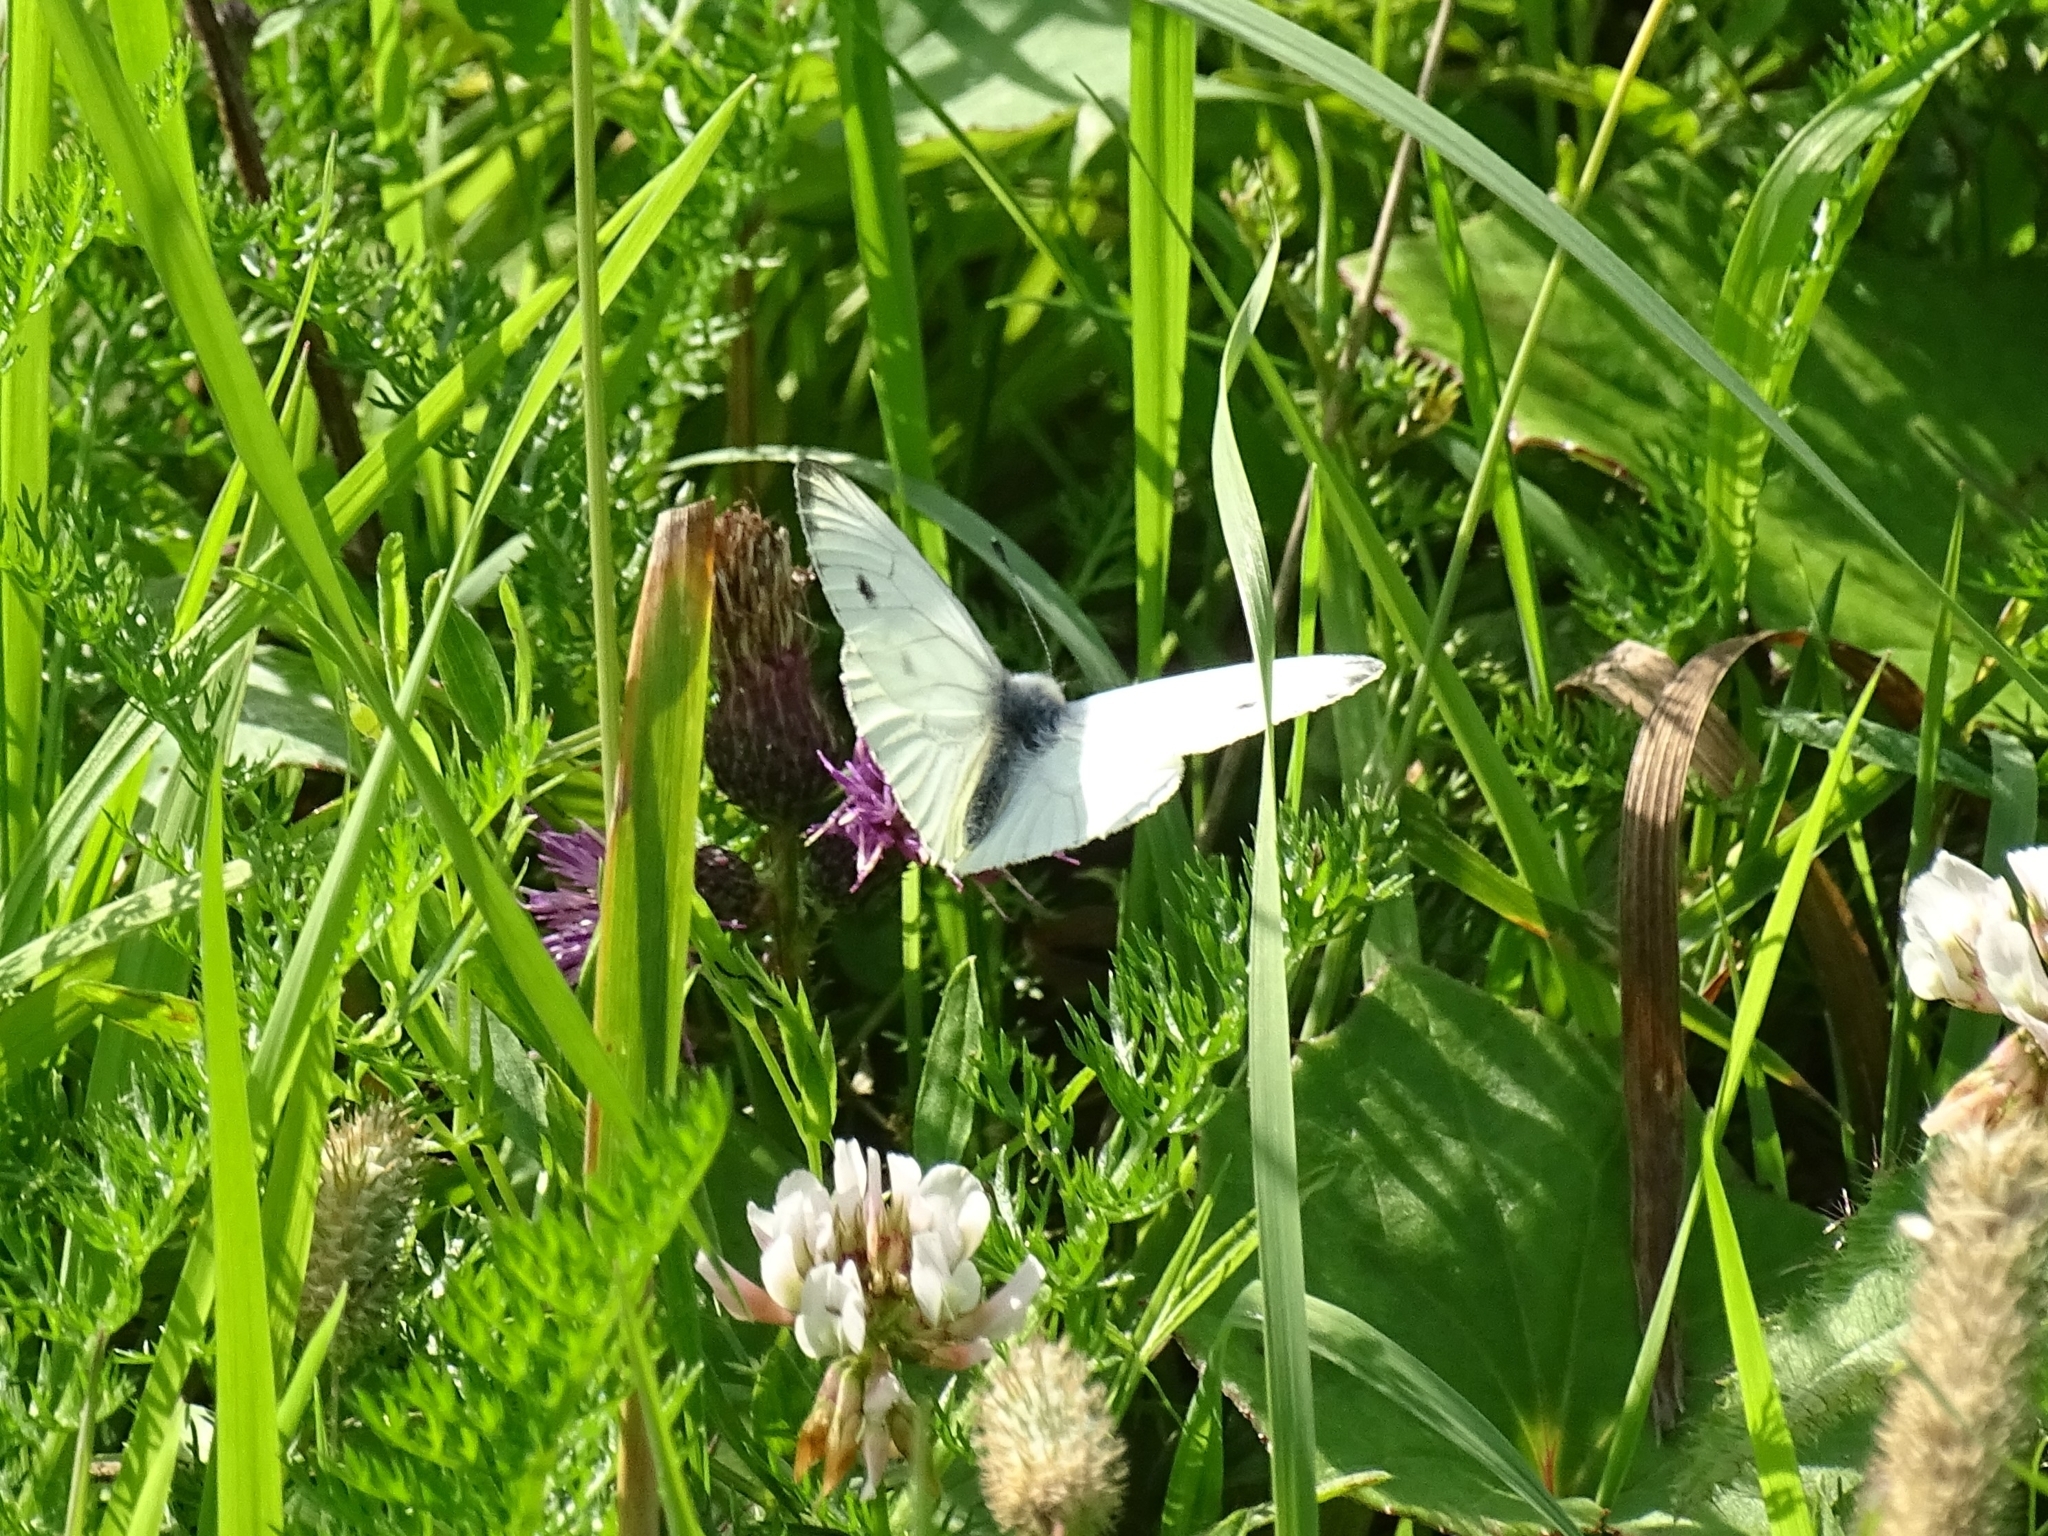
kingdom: Animalia
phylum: Arthropoda
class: Insecta
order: Lepidoptera
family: Pieridae
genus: Pieris
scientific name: Pieris napi
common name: Green-veined white
